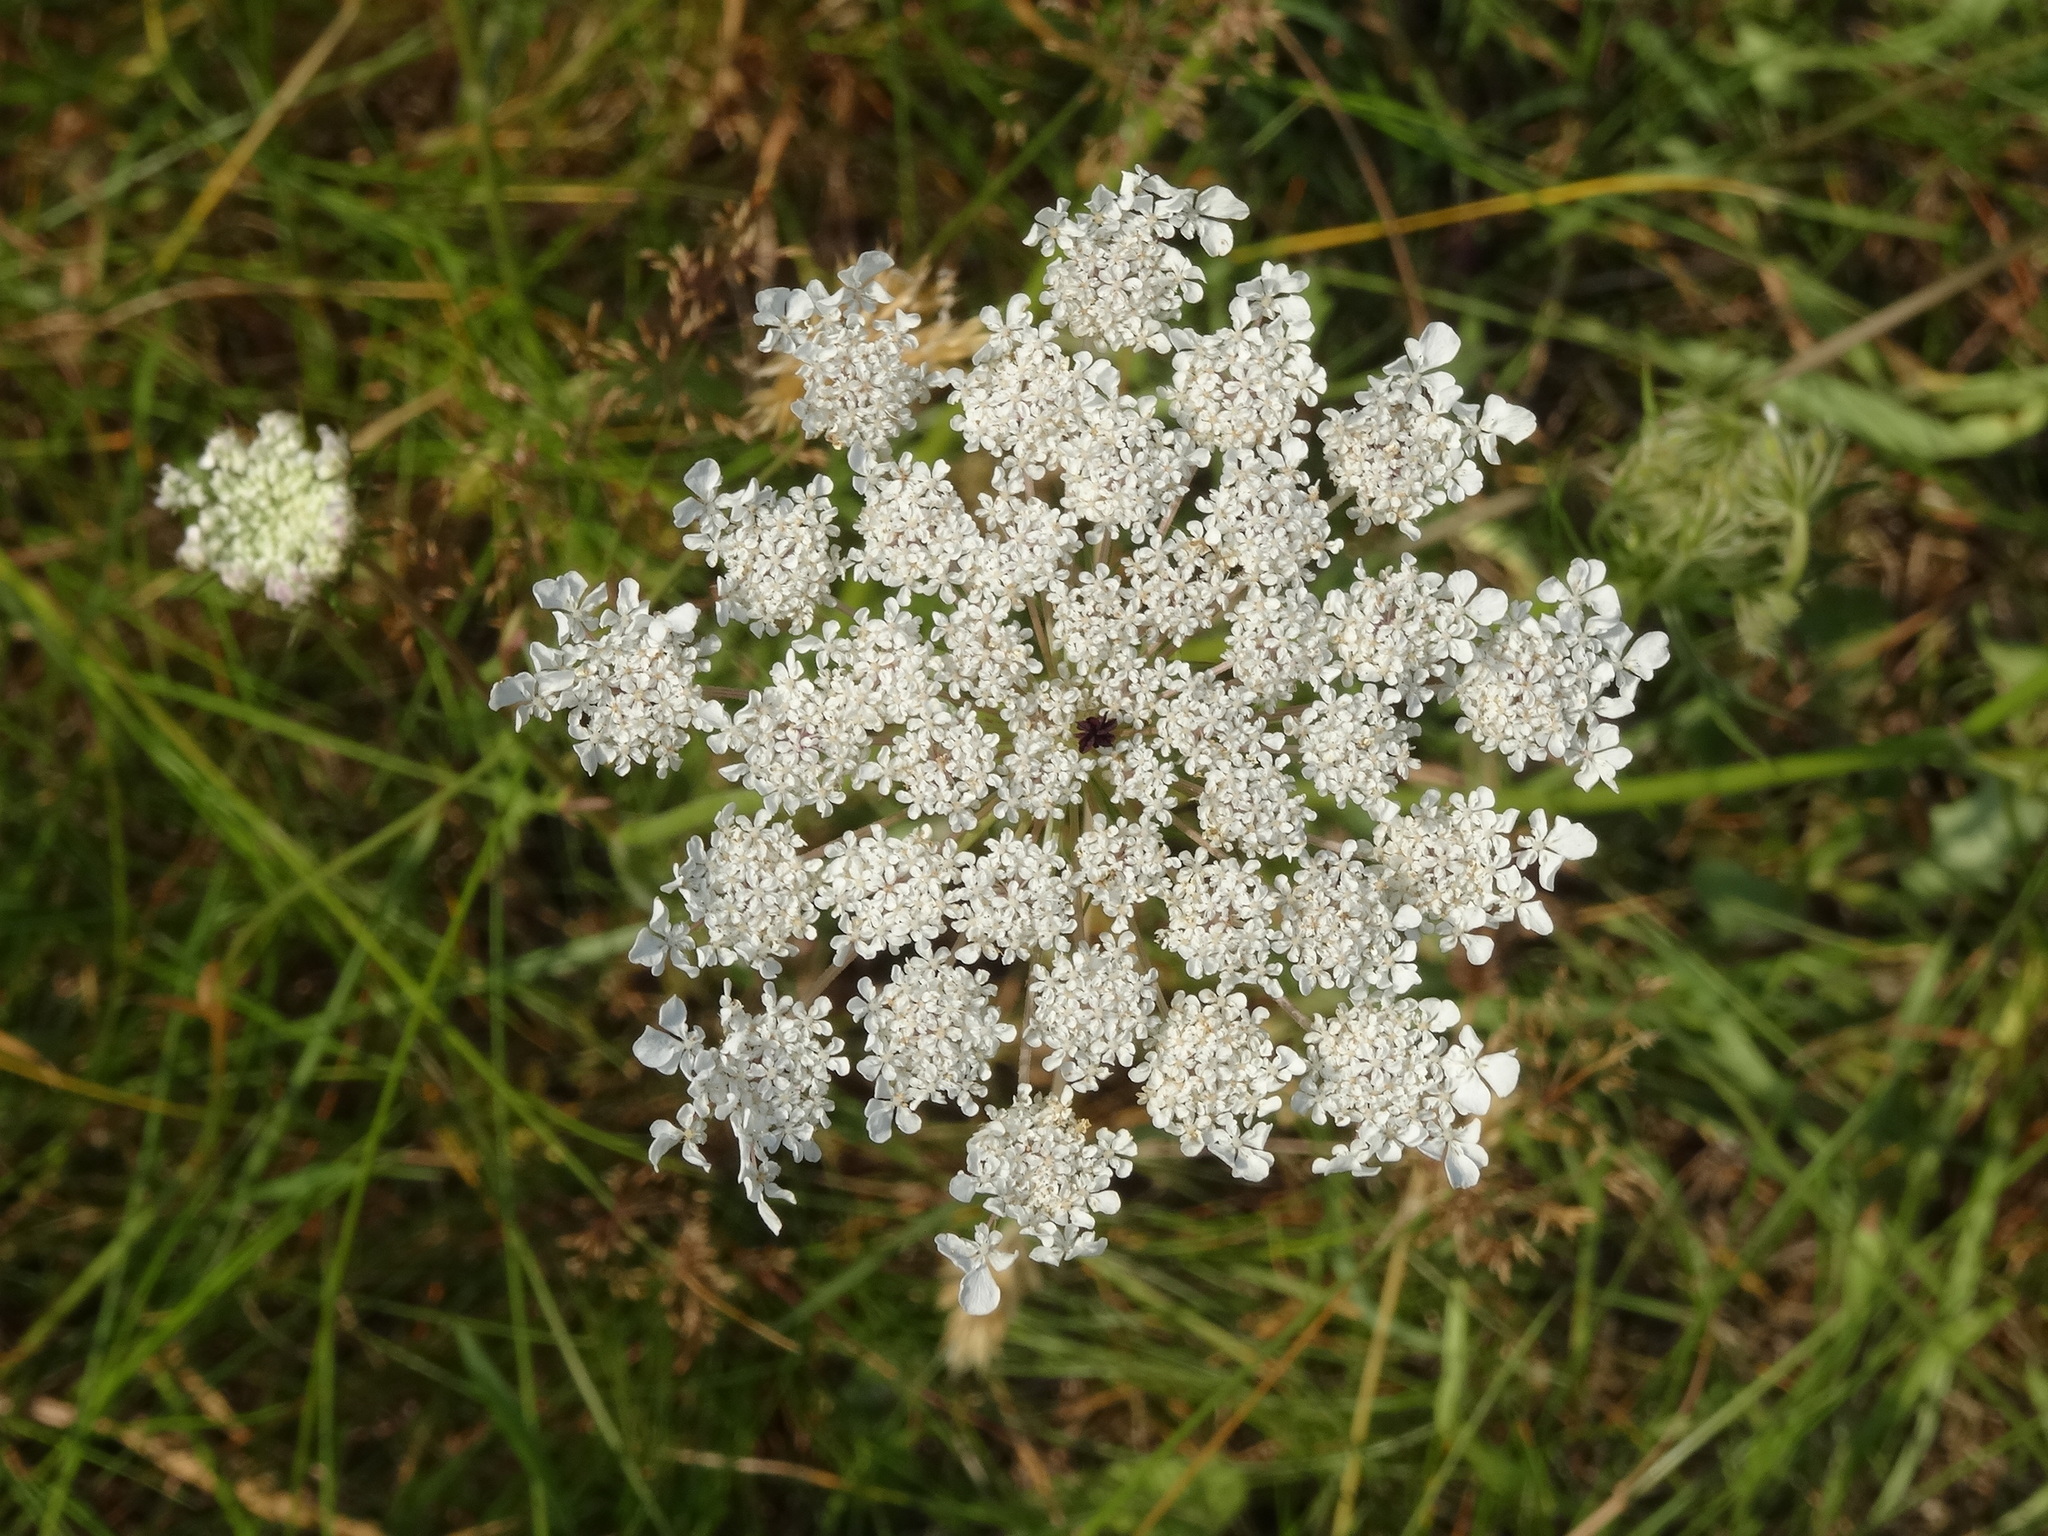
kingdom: Plantae
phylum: Tracheophyta
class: Magnoliopsida
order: Apiales
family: Apiaceae
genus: Daucus
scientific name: Daucus carota
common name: Wild carrot
